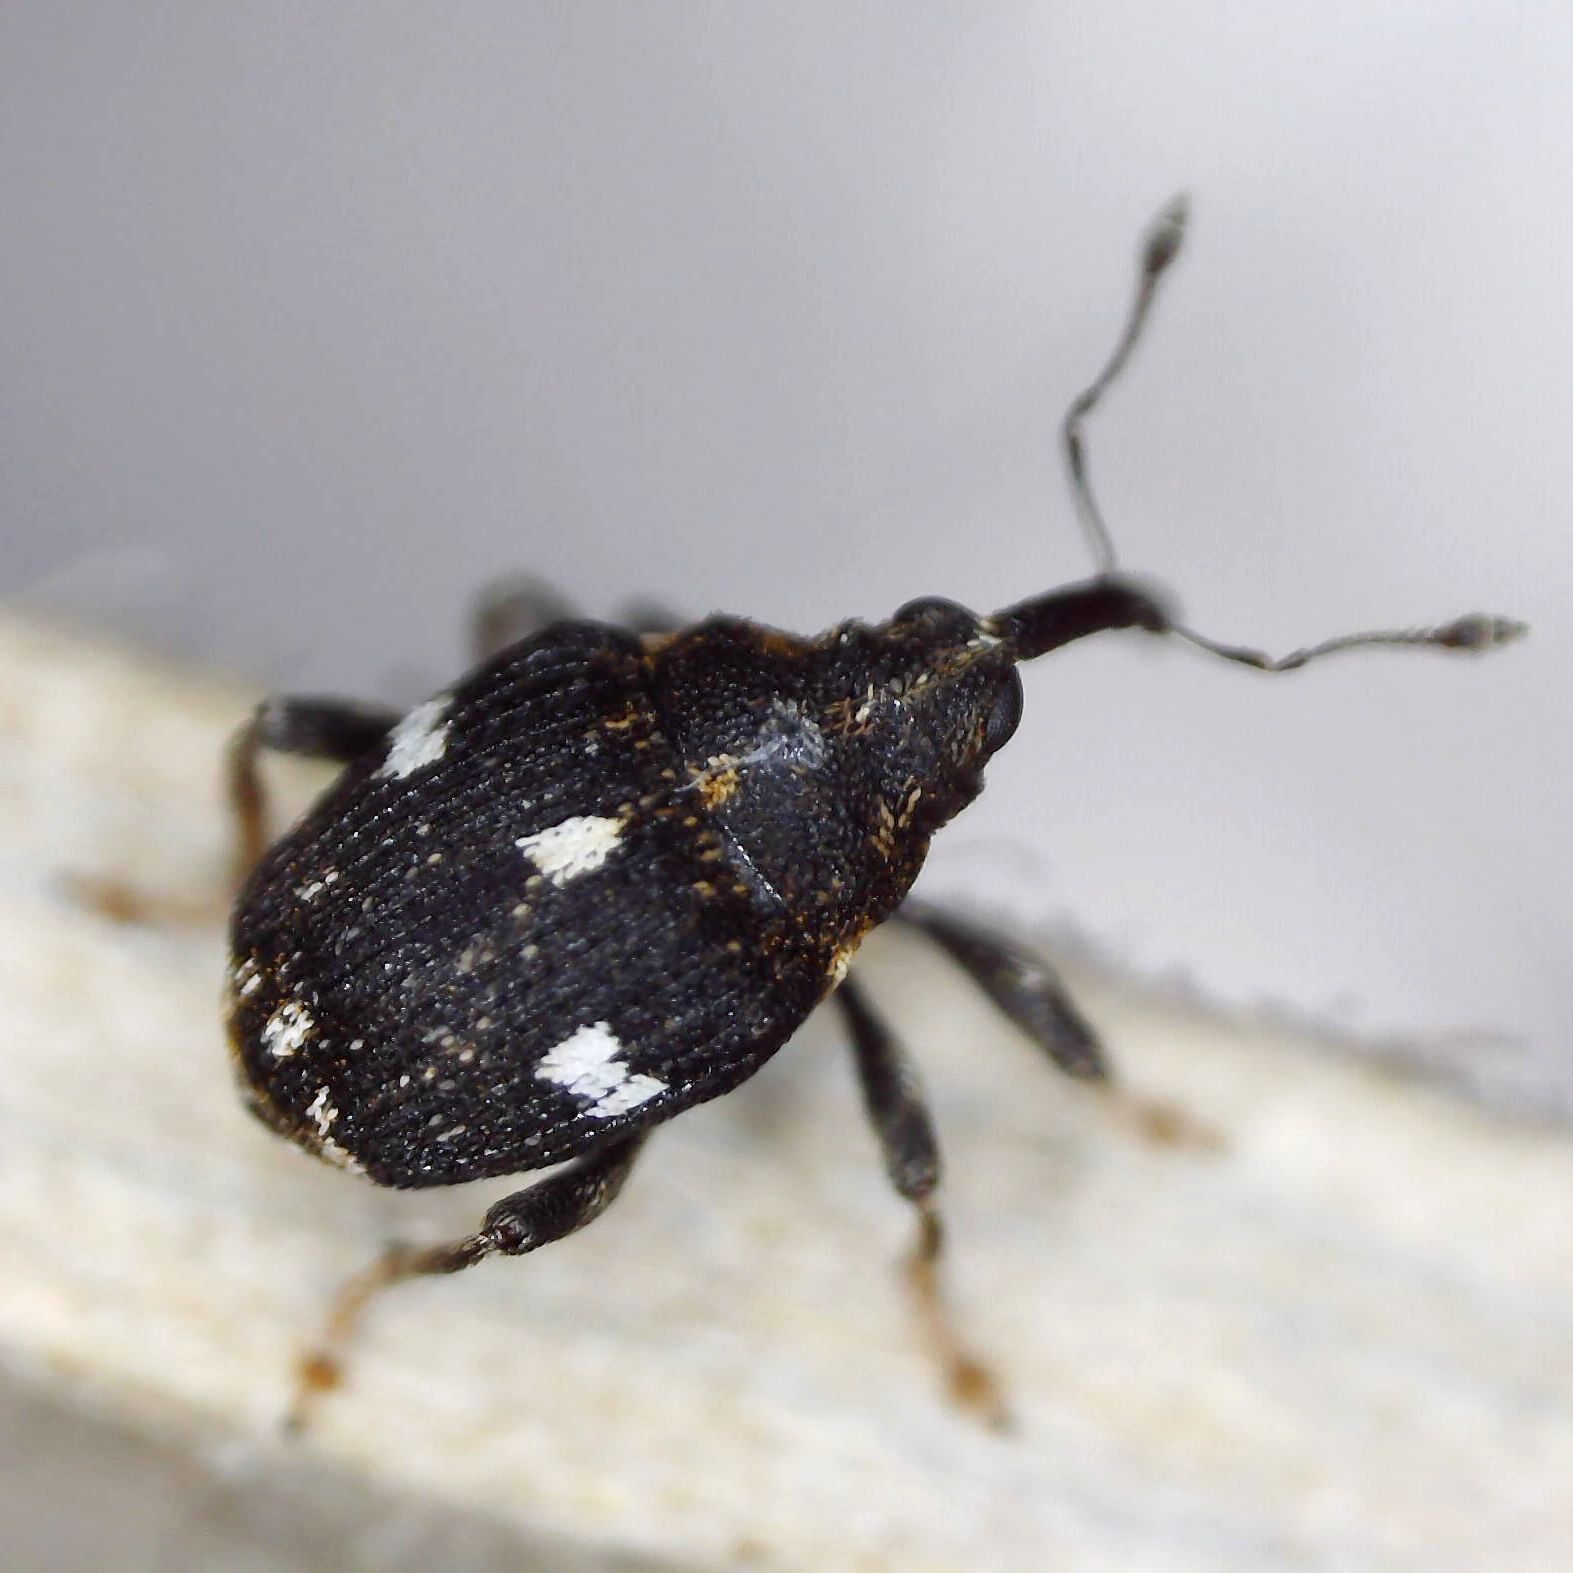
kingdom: Animalia
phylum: Arthropoda
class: Insecta
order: Coleoptera
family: Curculionidae
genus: Mogulones
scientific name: Mogulones asperifoliarum
